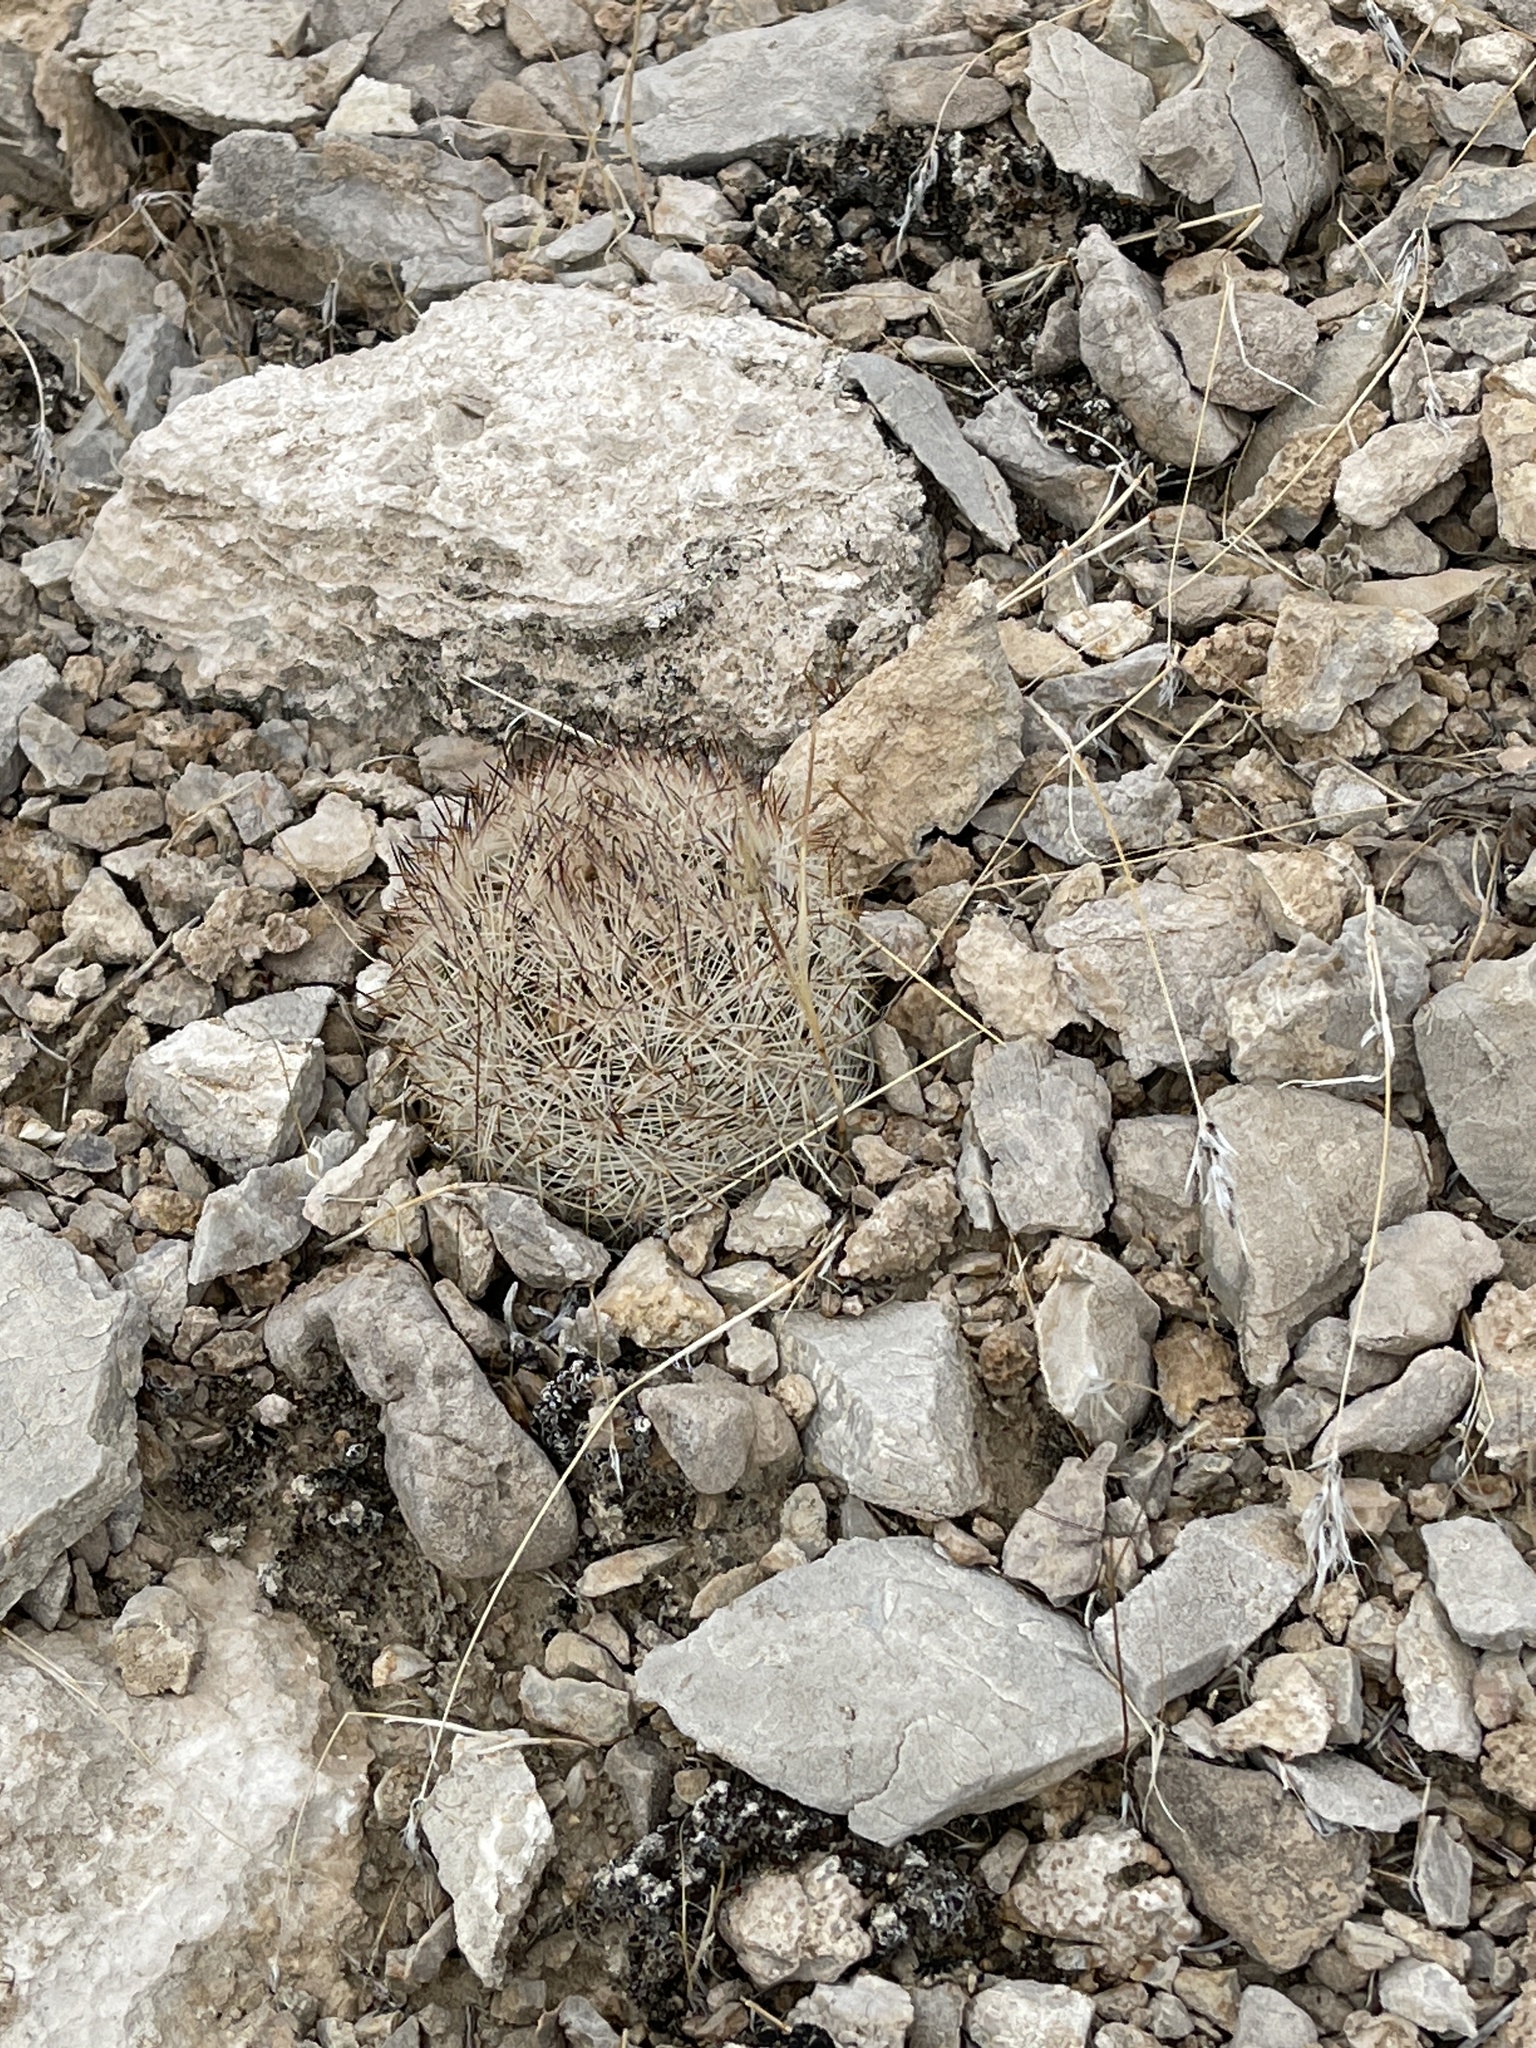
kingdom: Plantae
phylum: Tracheophyta
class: Magnoliopsida
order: Caryophyllales
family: Cactaceae
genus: Pelecyphora
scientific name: Pelecyphora dasyacantha
